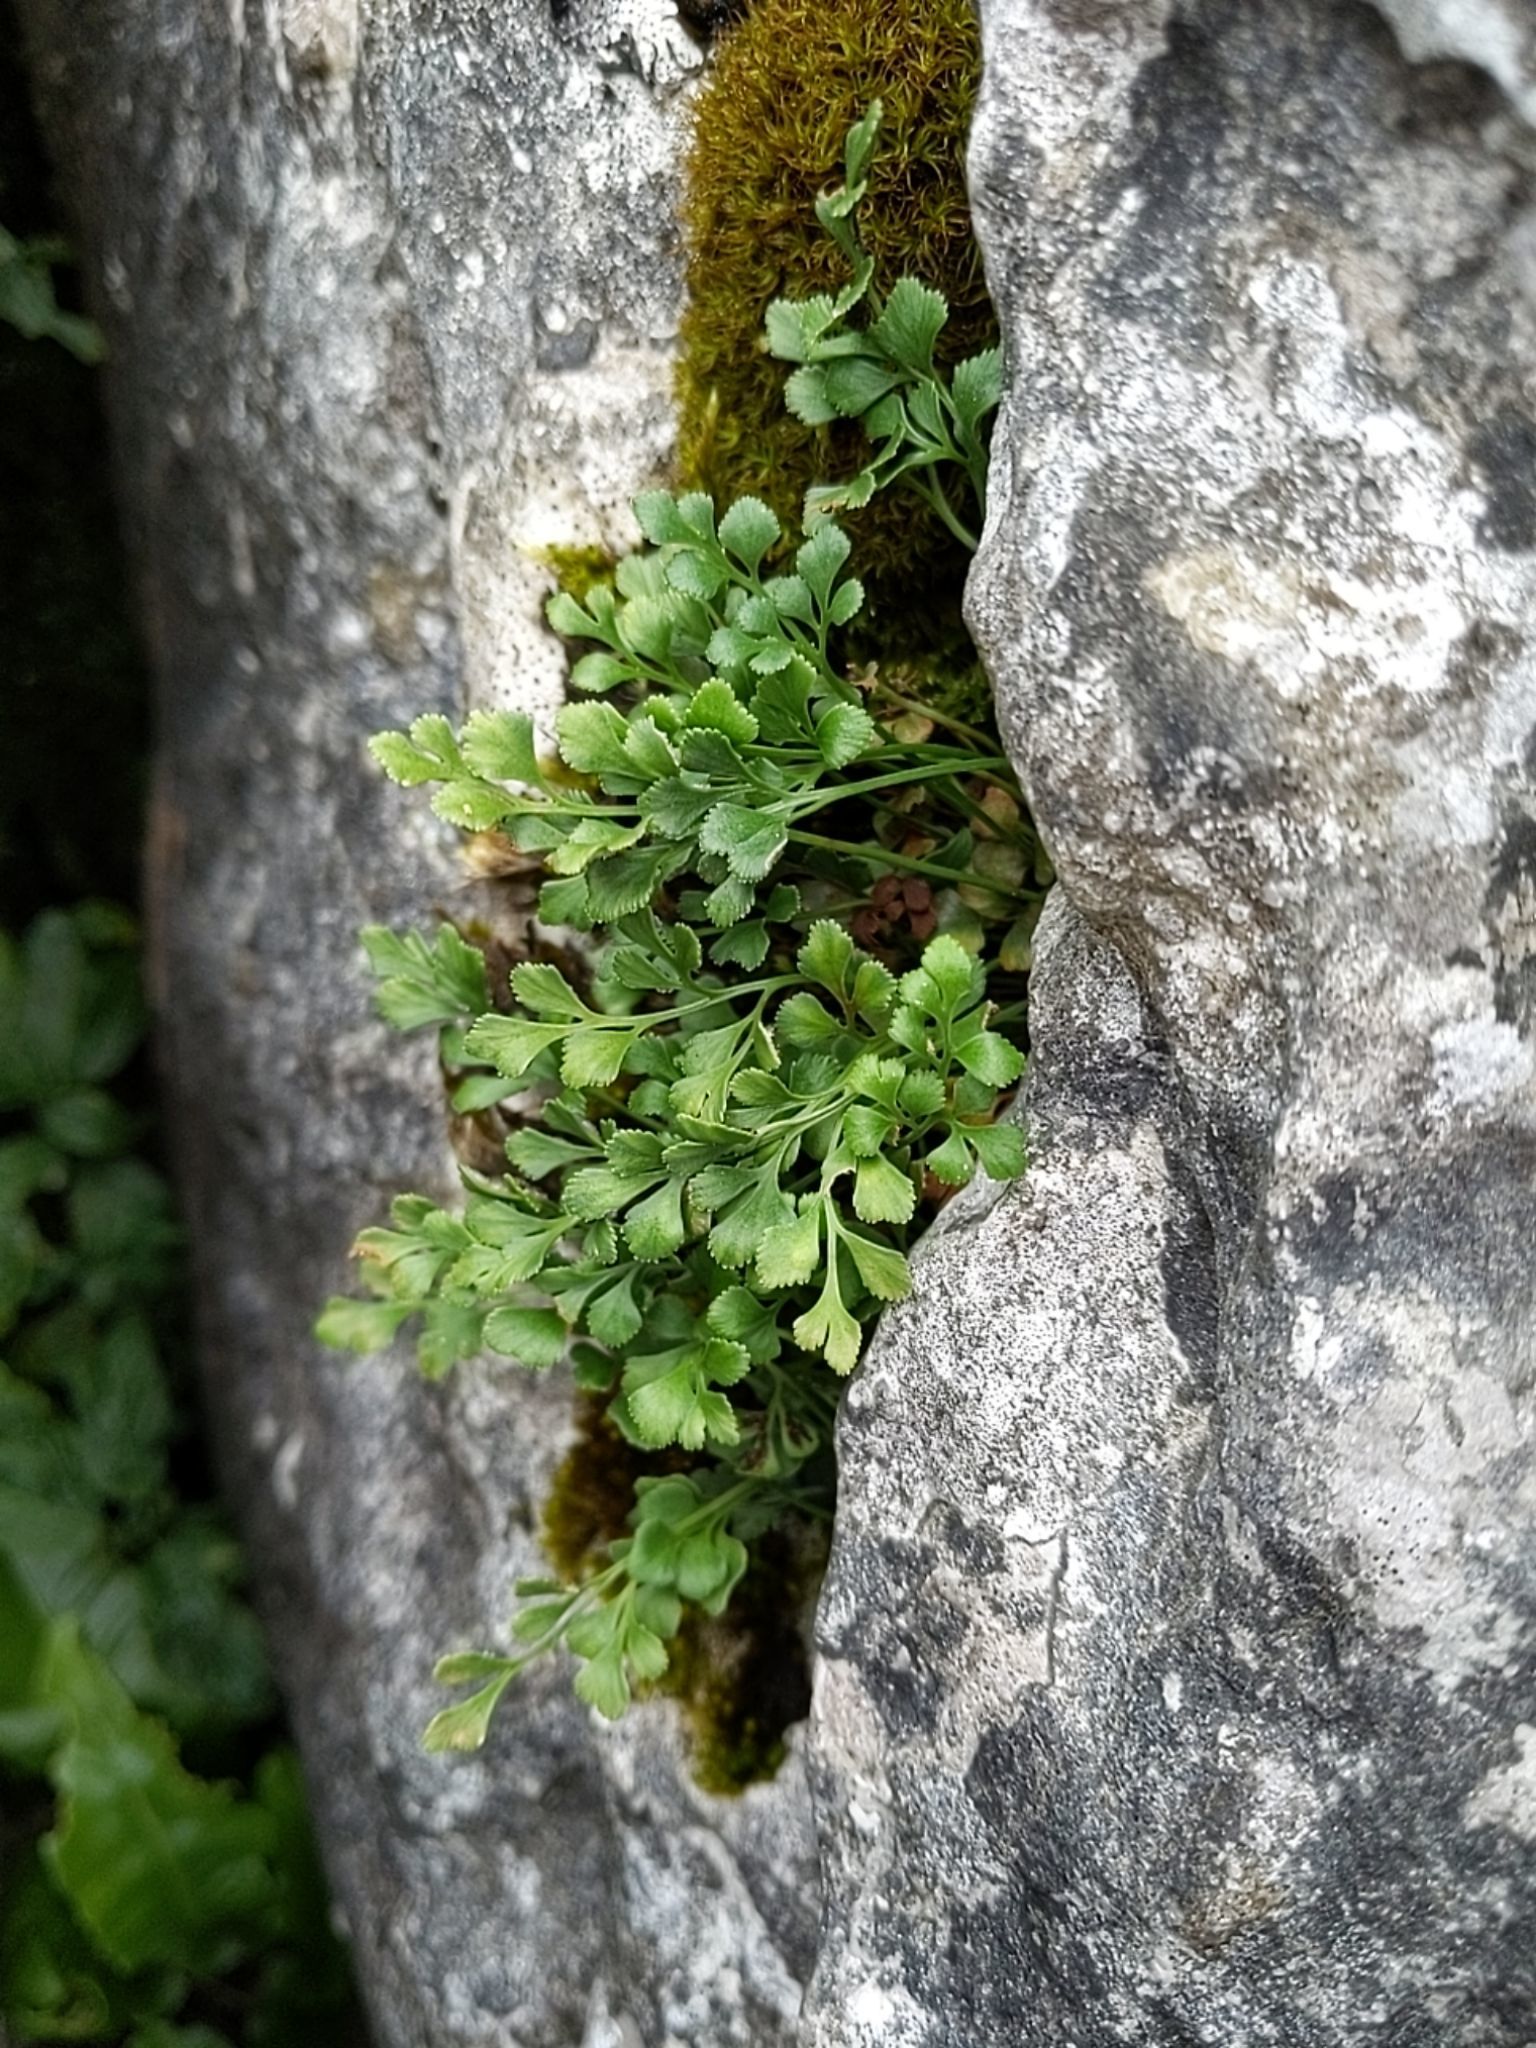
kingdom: Plantae
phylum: Tracheophyta
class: Polypodiopsida
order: Polypodiales
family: Aspleniaceae
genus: Asplenium
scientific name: Asplenium ruta-muraria
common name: Wall-rue
